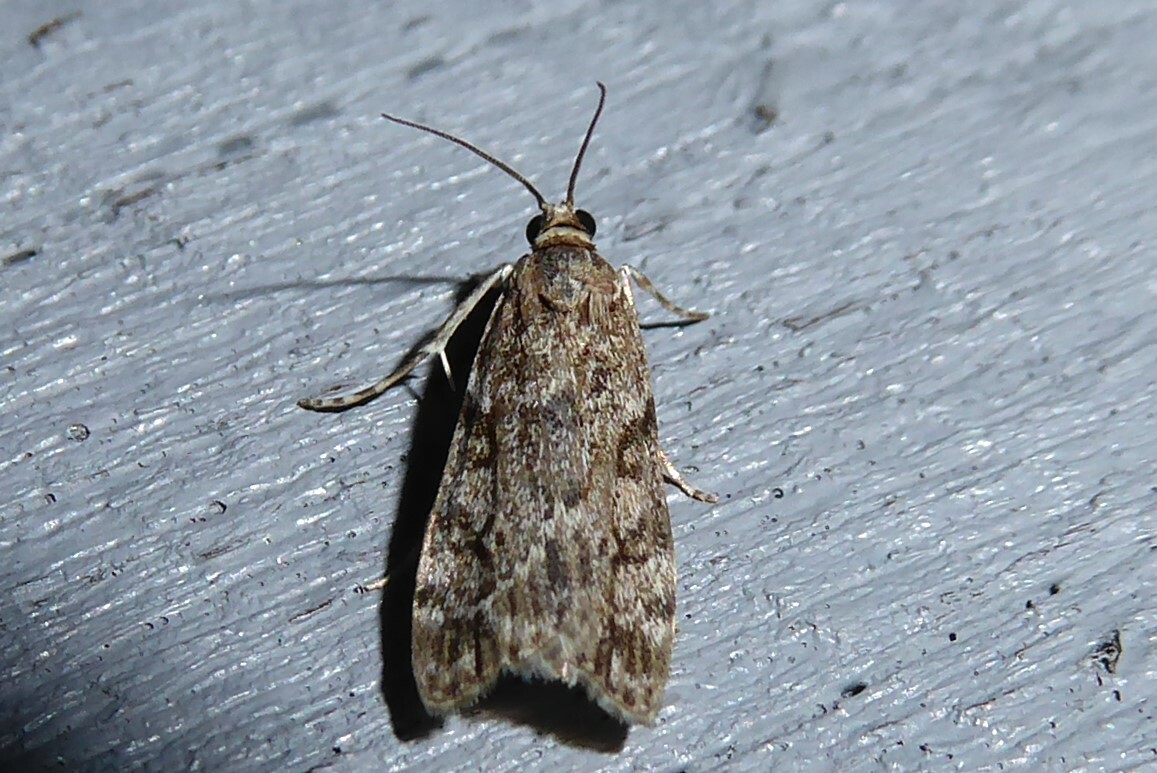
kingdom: Animalia
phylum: Arthropoda
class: Insecta
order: Lepidoptera
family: Crambidae
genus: Eudonia
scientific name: Eudonia cymatias
